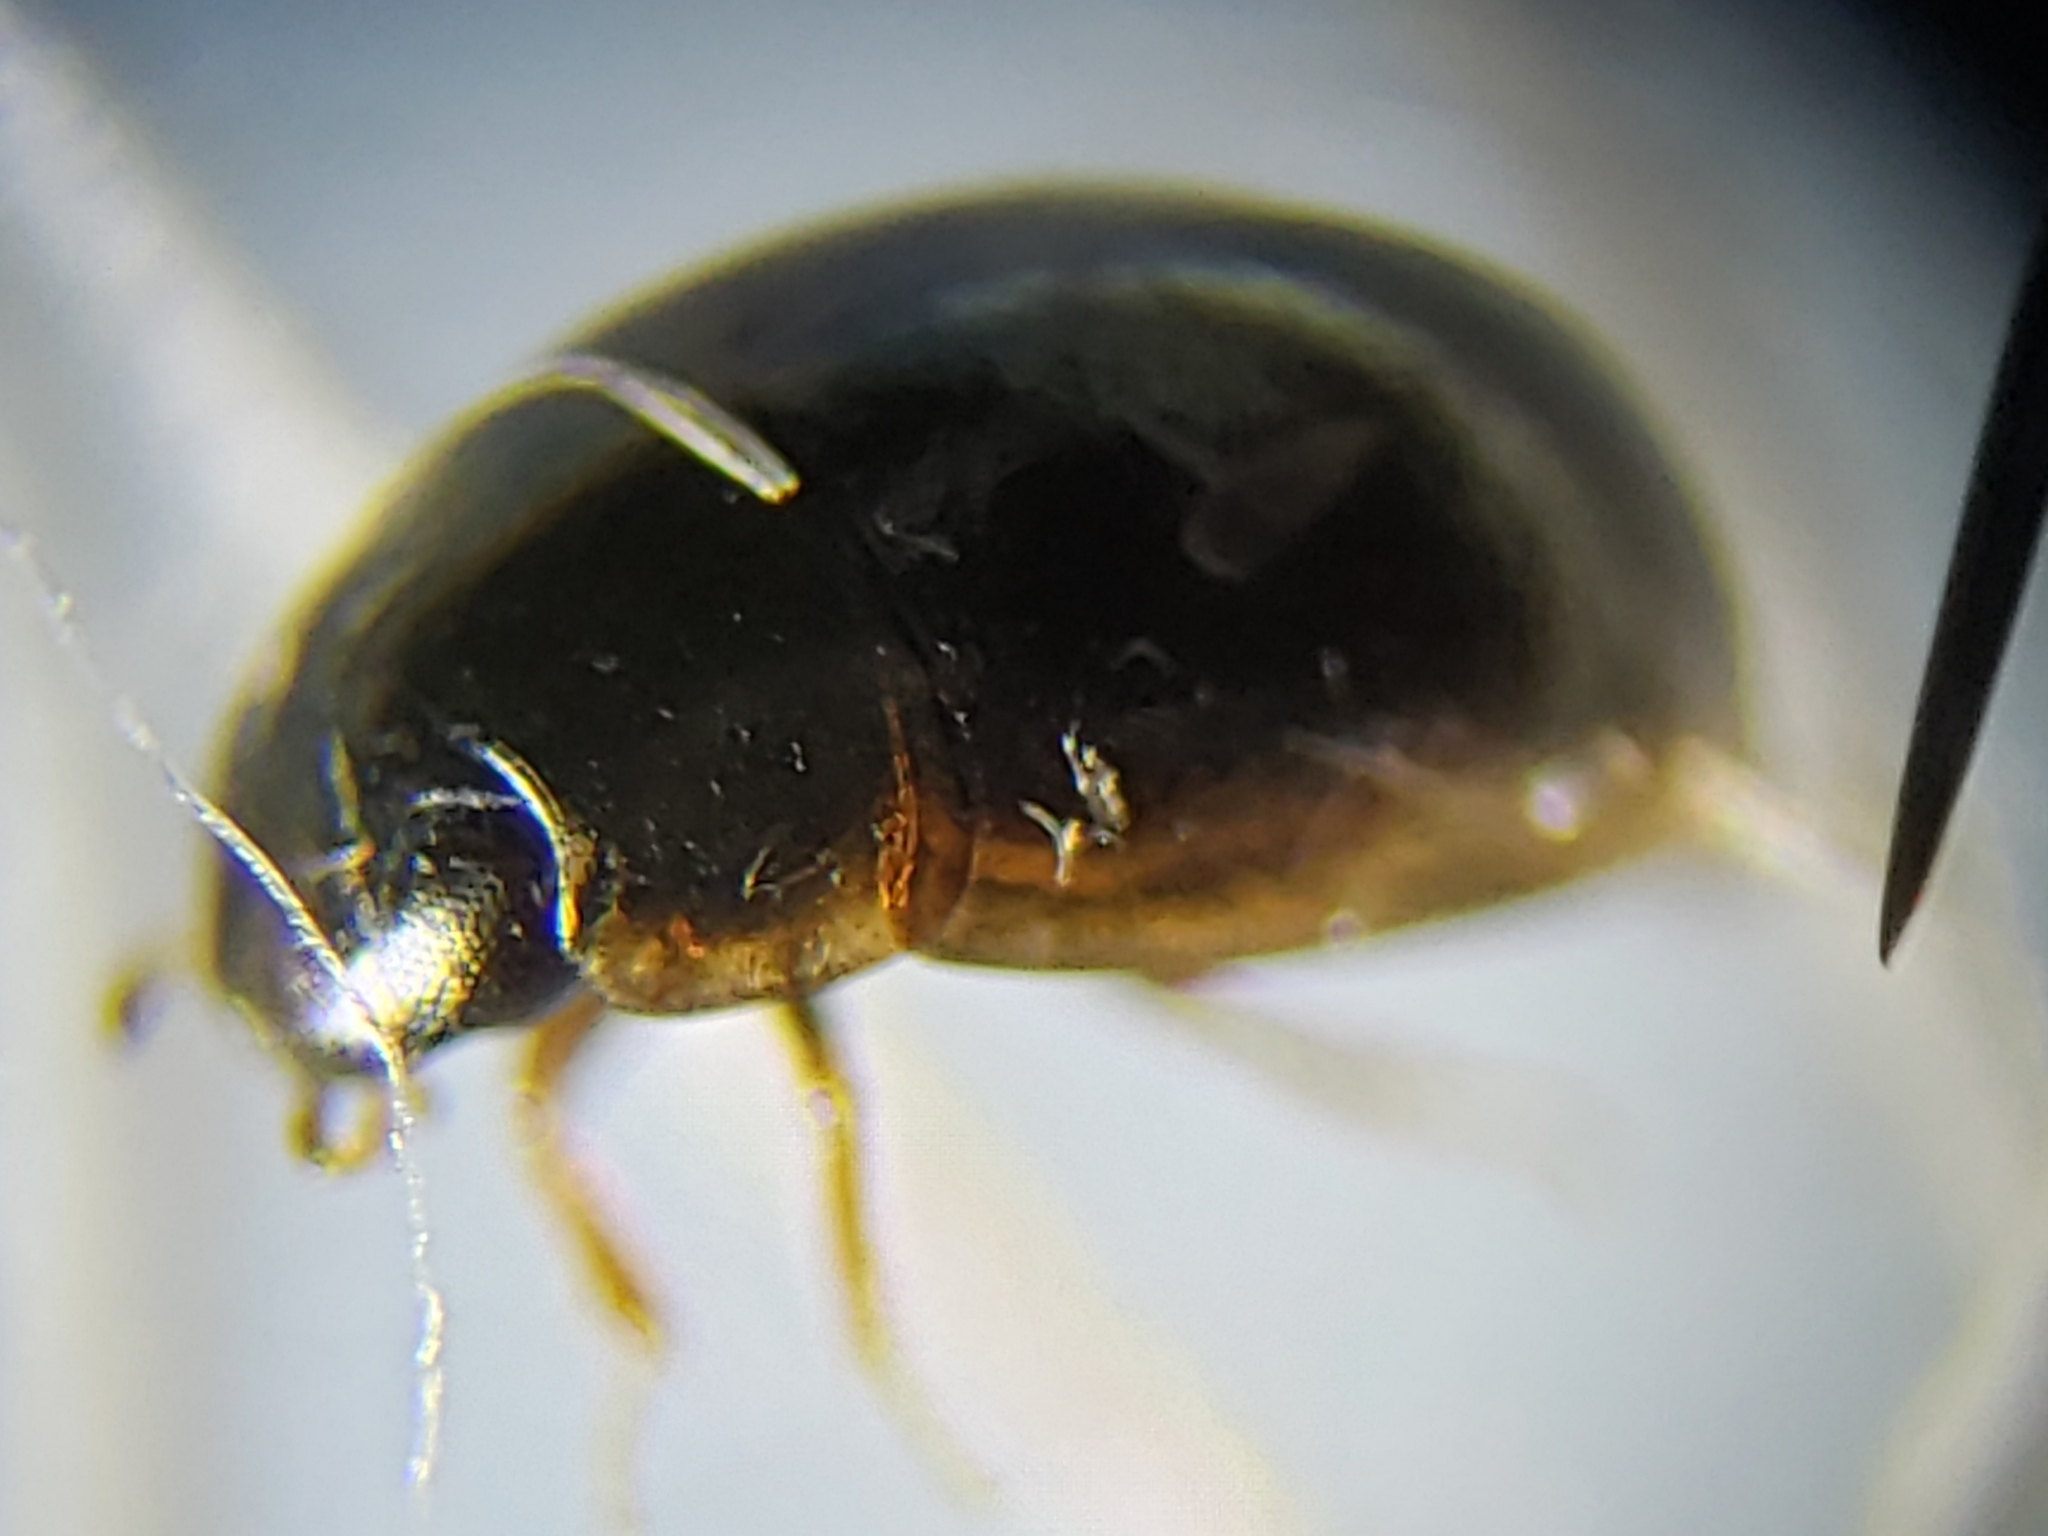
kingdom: Animalia
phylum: Arthropoda
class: Insecta
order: Coleoptera
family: Hydrophilidae
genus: Paracymus
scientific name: Paracymus nanus
